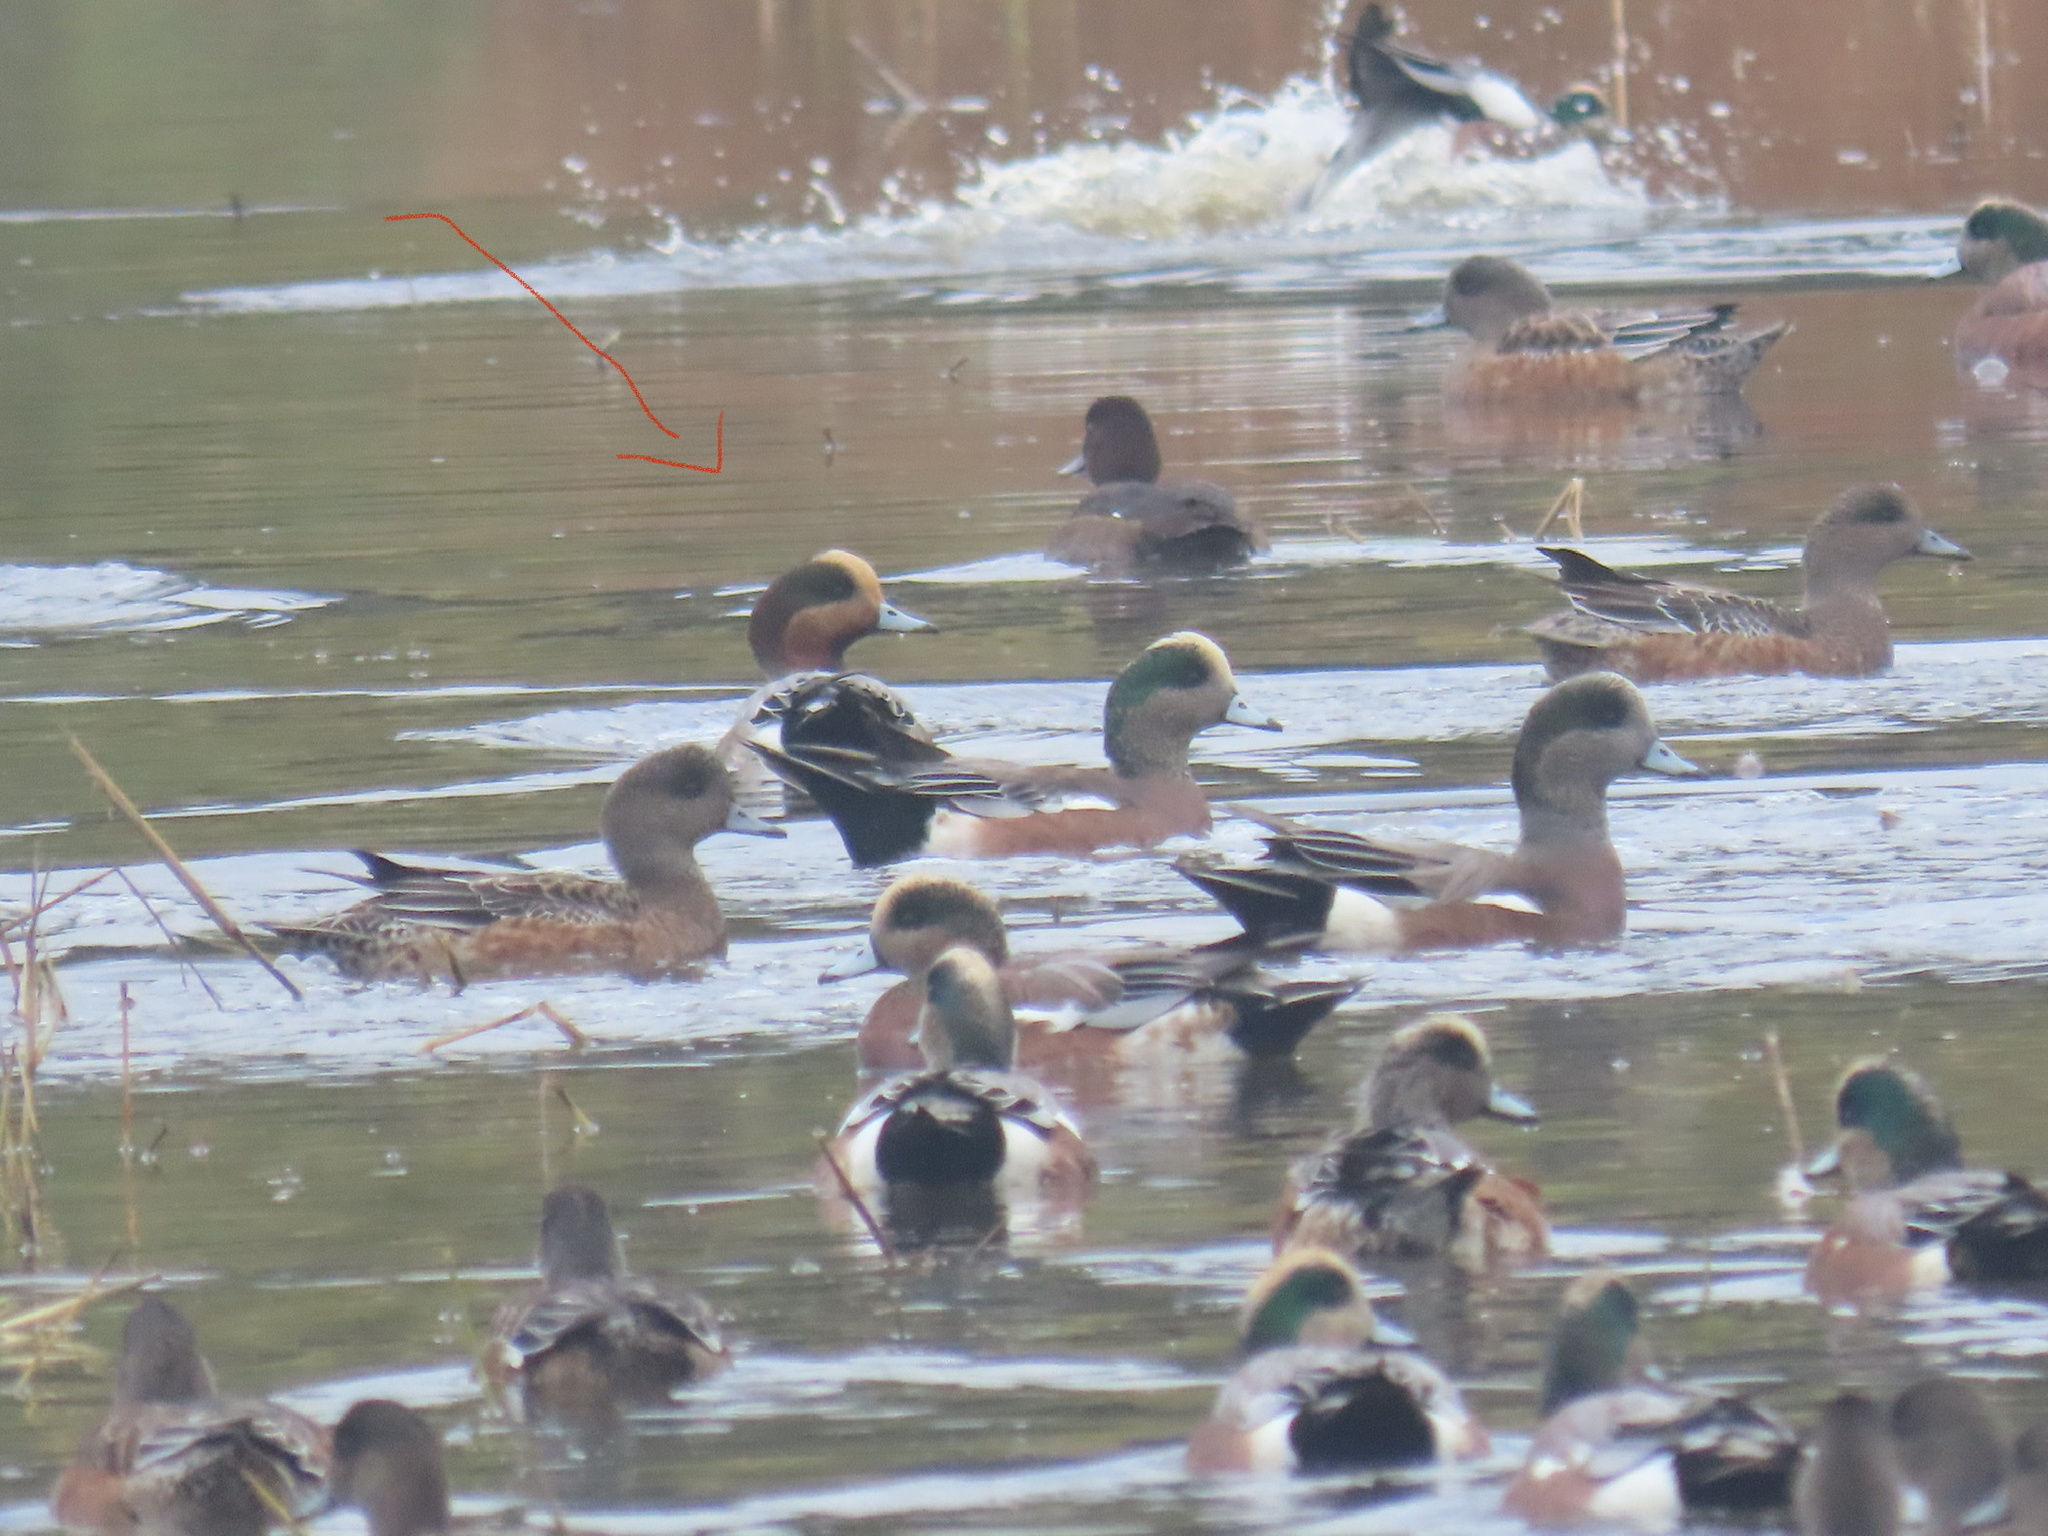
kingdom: Animalia
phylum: Chordata
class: Aves
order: Anseriformes
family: Anatidae
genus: Mareca
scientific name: Mareca penelope
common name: Eurasian wigeon
